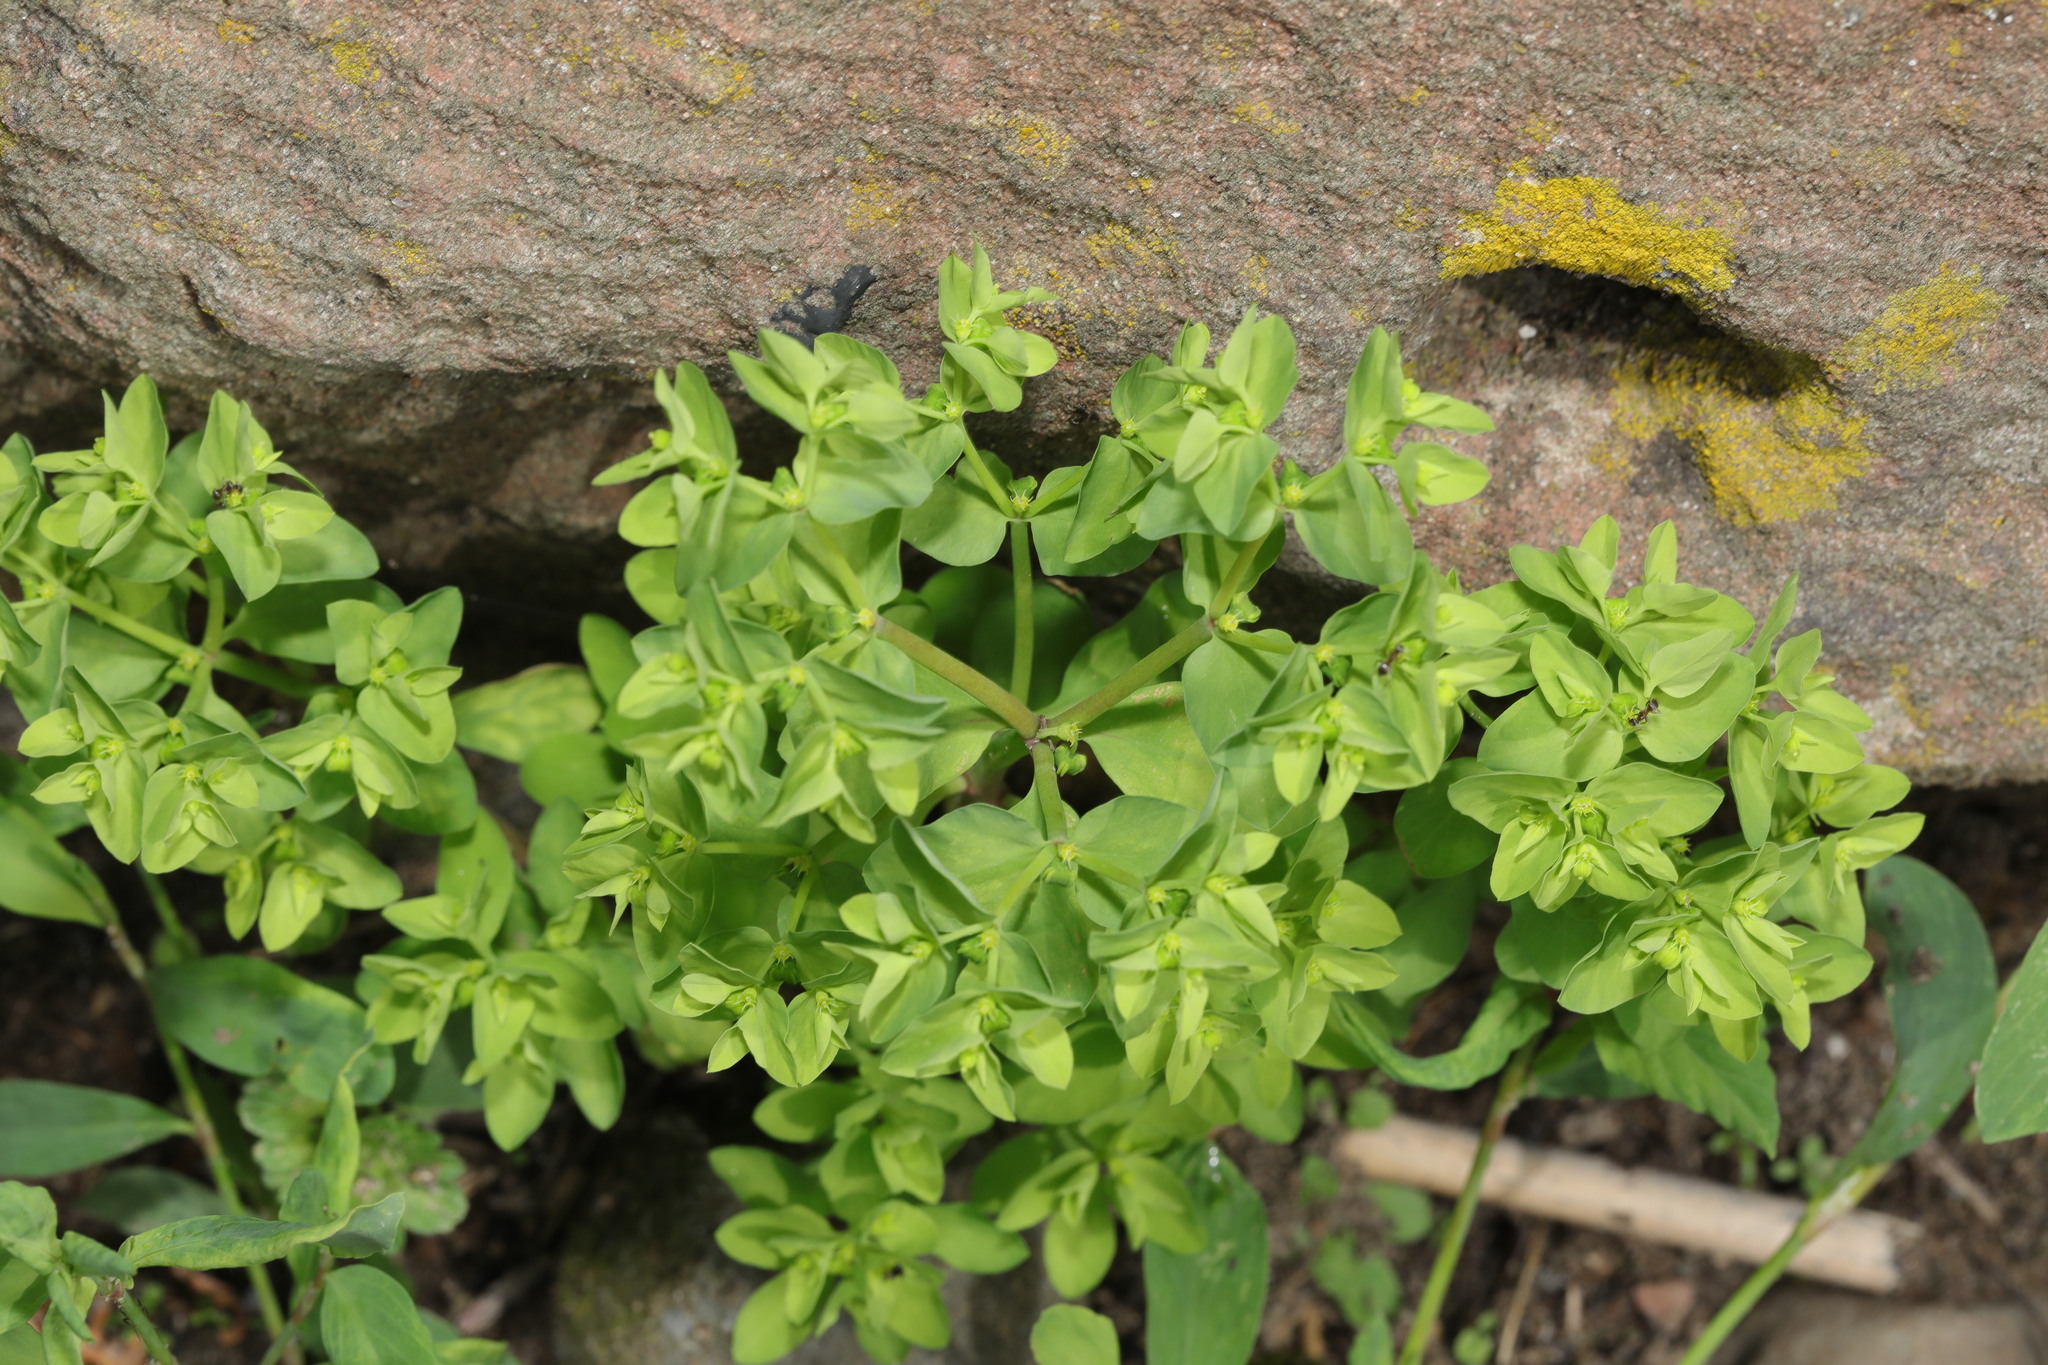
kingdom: Plantae
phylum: Tracheophyta
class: Magnoliopsida
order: Malpighiales
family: Euphorbiaceae
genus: Euphorbia
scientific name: Euphorbia peplus
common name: Petty spurge
